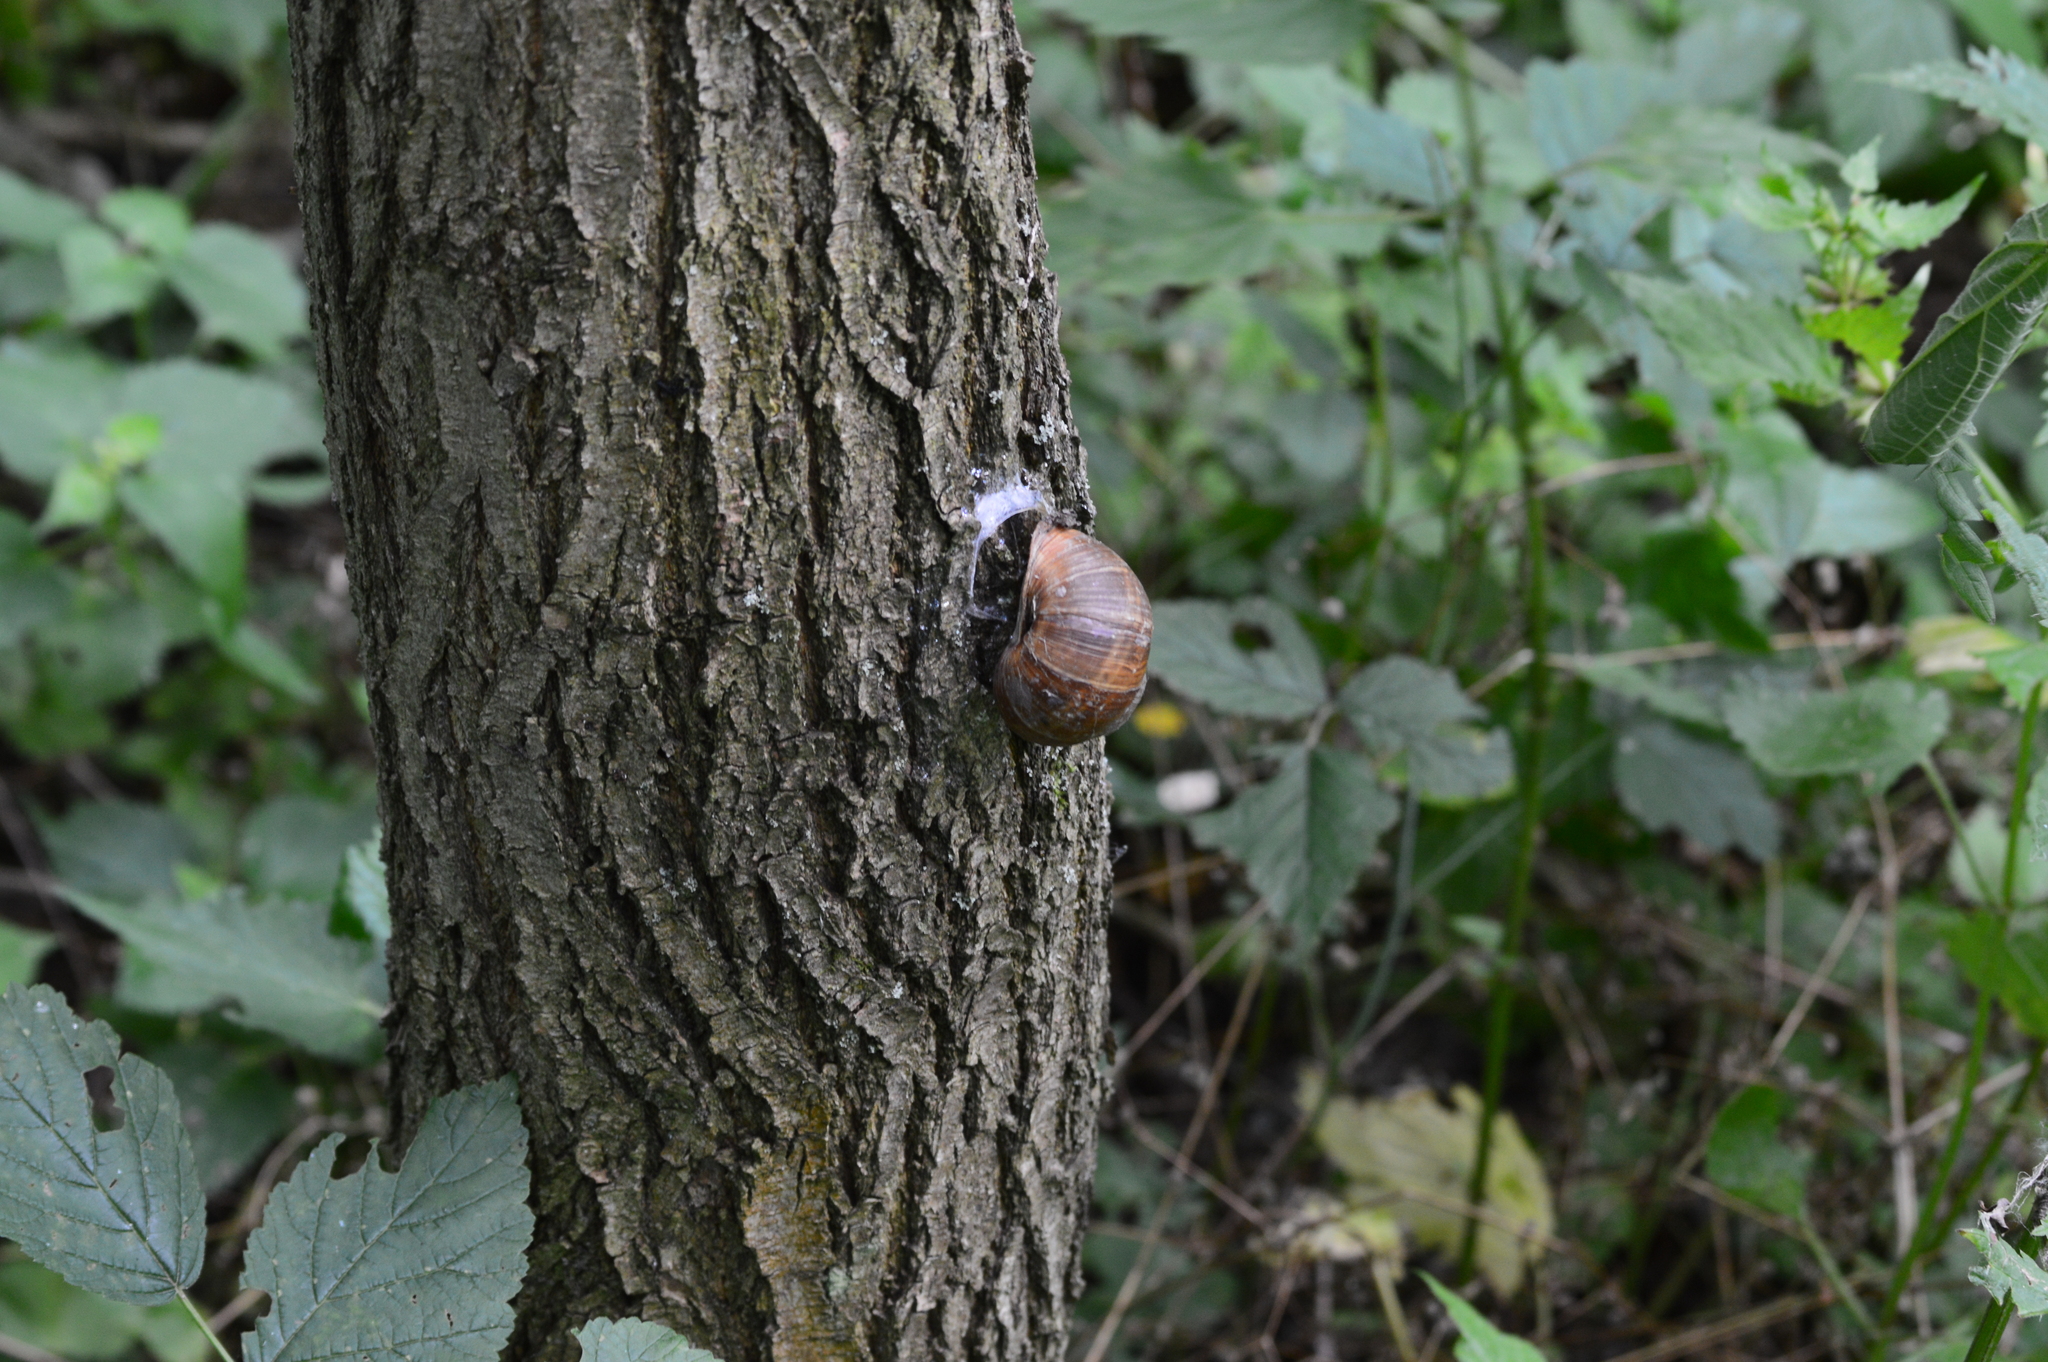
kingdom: Animalia
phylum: Mollusca
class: Gastropoda
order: Stylommatophora
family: Helicidae
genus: Helix
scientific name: Helix pomatia
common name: Roman snail
